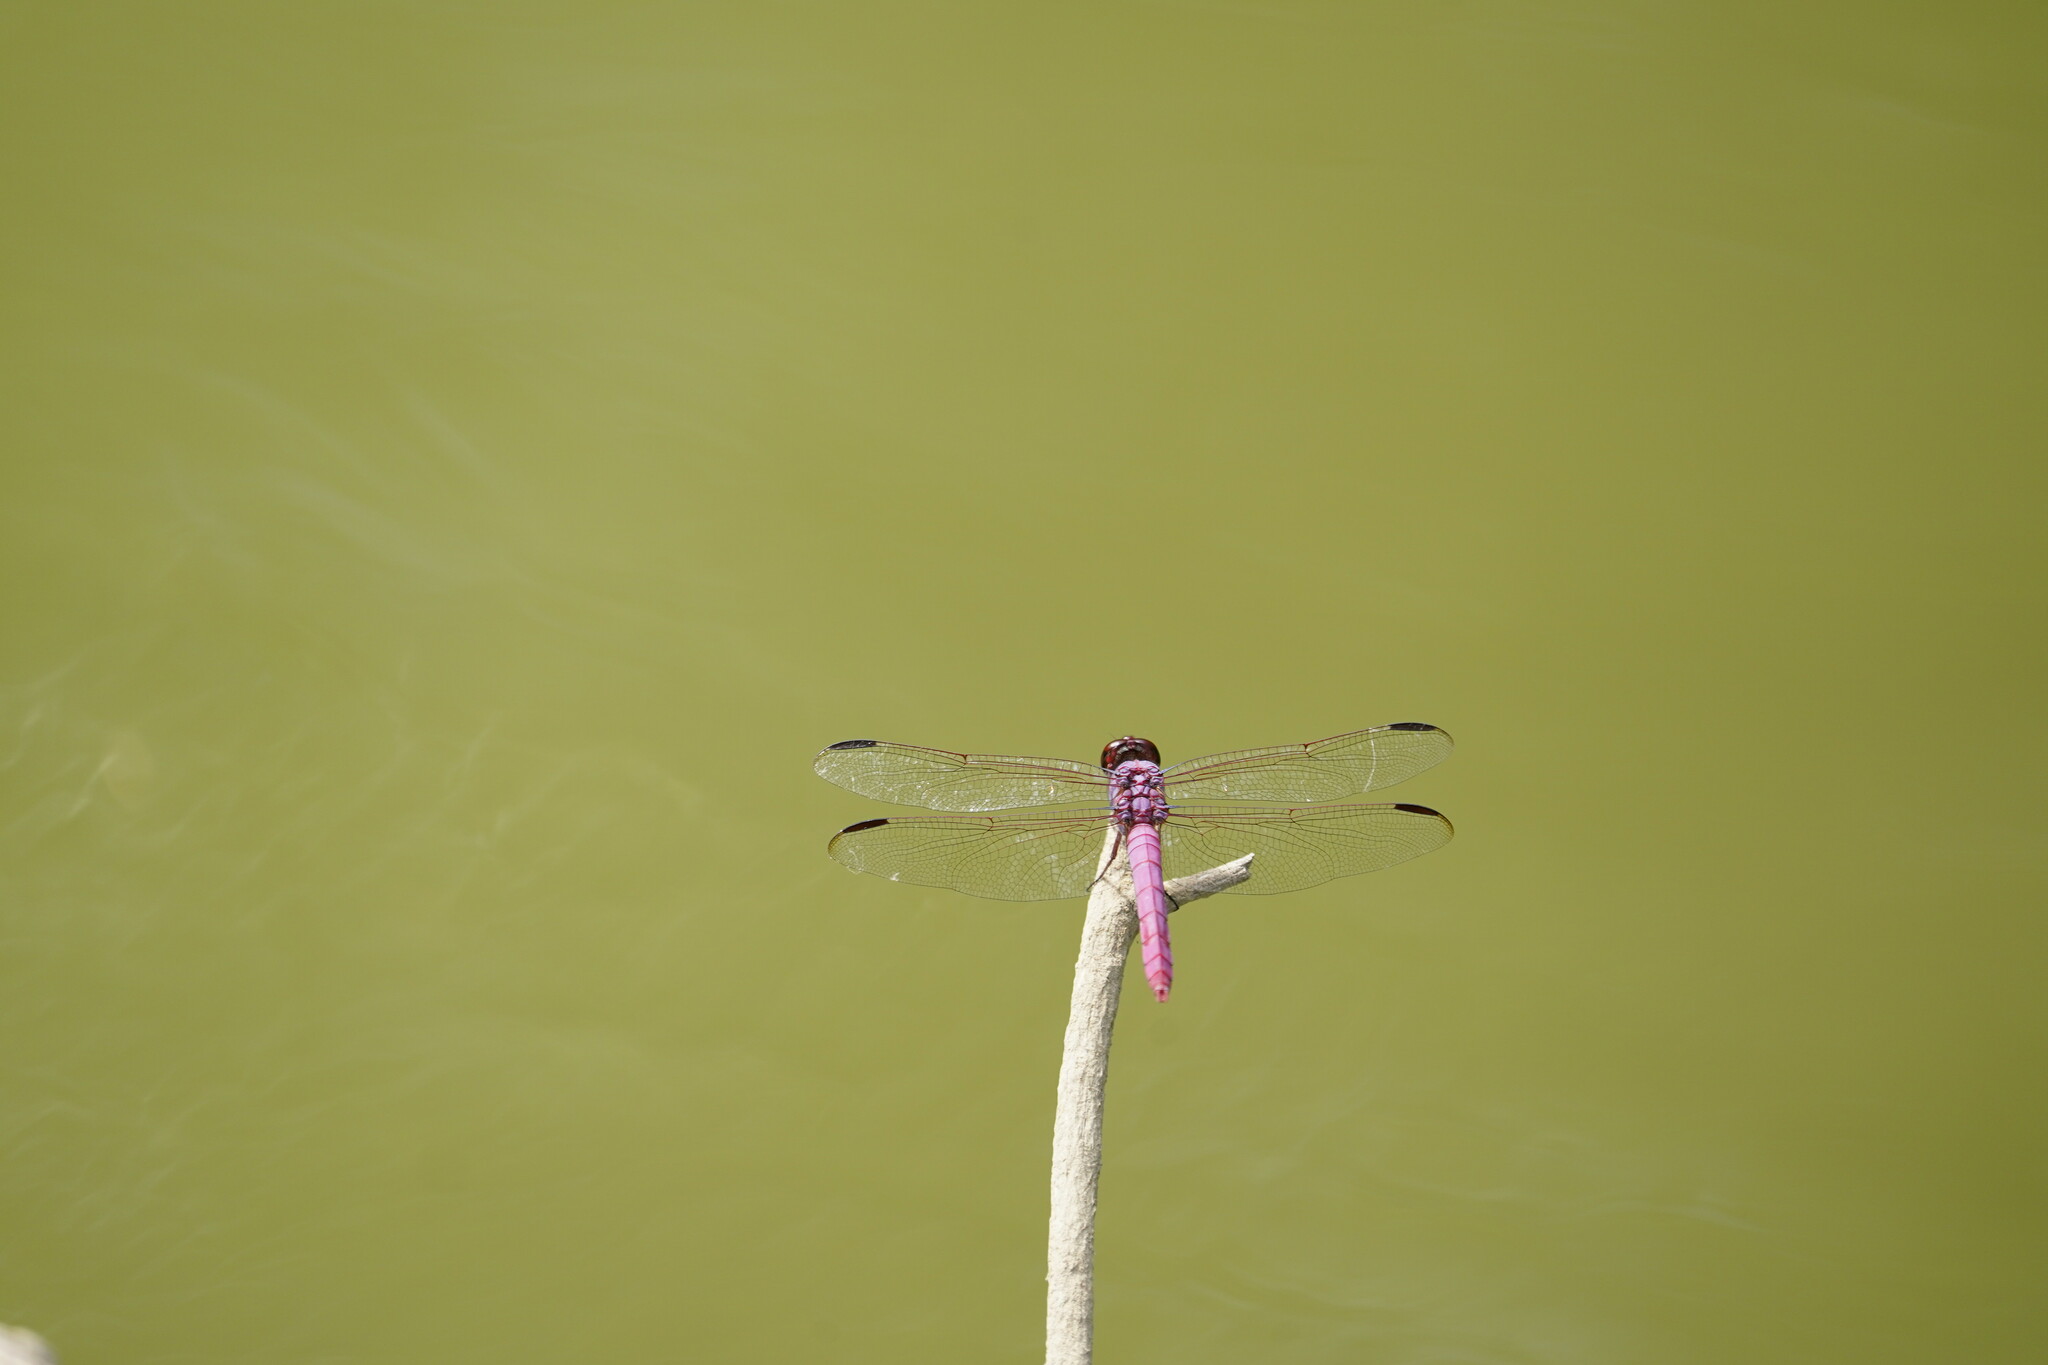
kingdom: Animalia
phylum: Arthropoda
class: Insecta
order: Odonata
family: Libellulidae
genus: Orthemis
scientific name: Orthemis ferruginea
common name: Roseate skimmer
